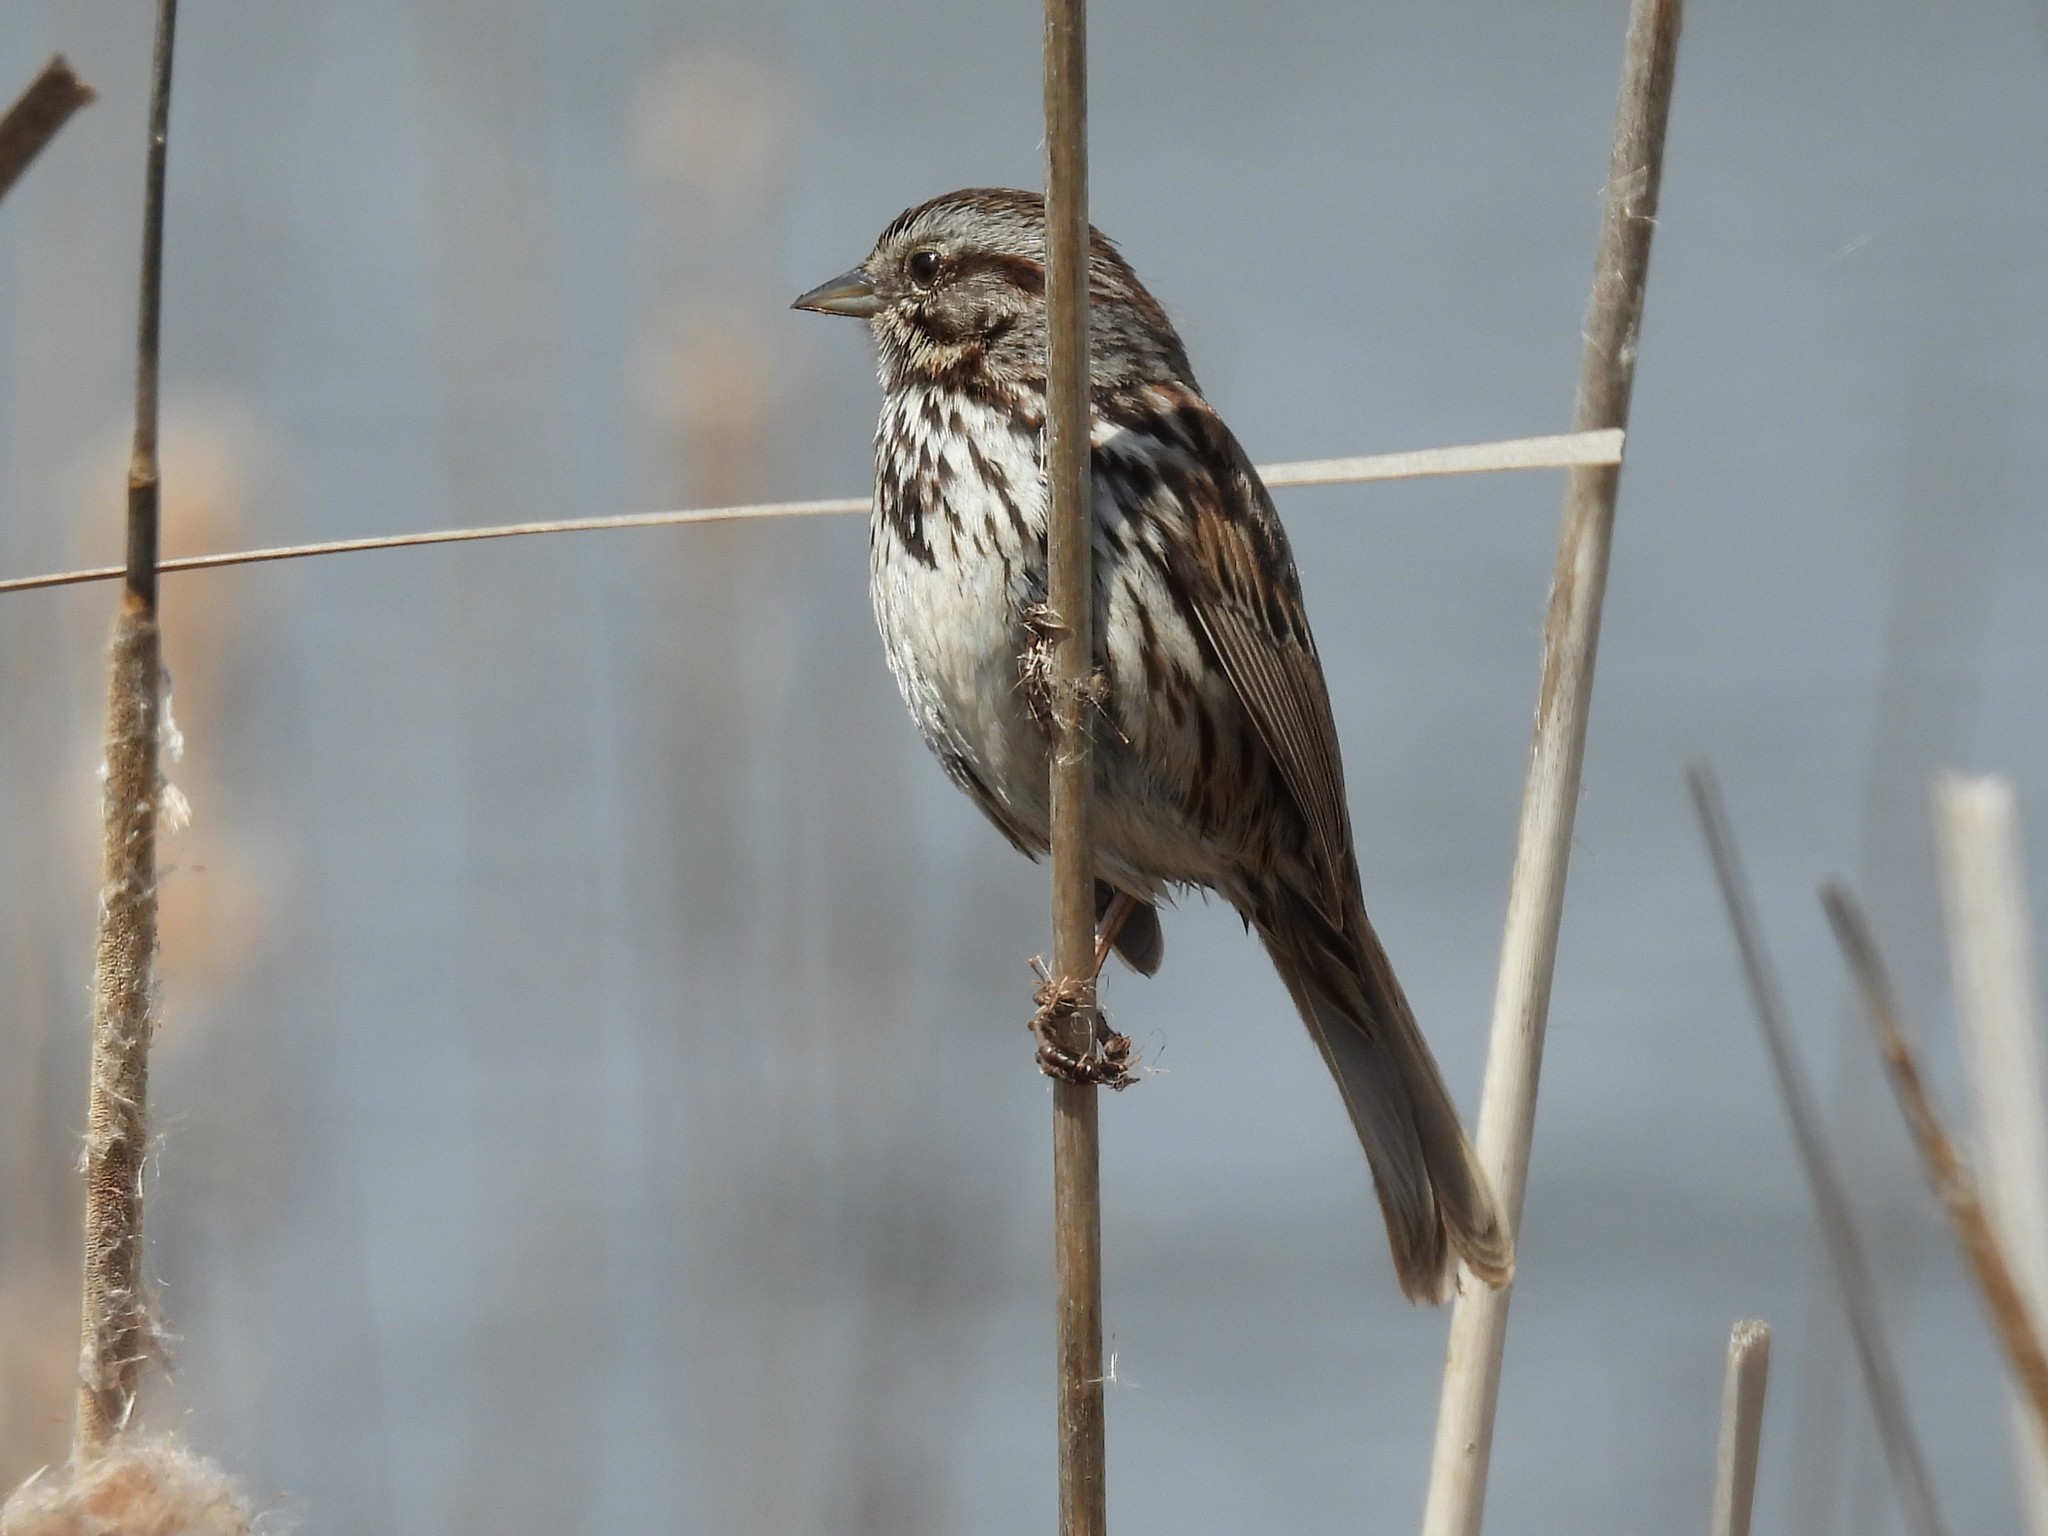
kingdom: Animalia
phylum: Chordata
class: Aves
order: Passeriformes
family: Passerellidae
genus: Melospiza
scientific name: Melospiza melodia
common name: Song sparrow
